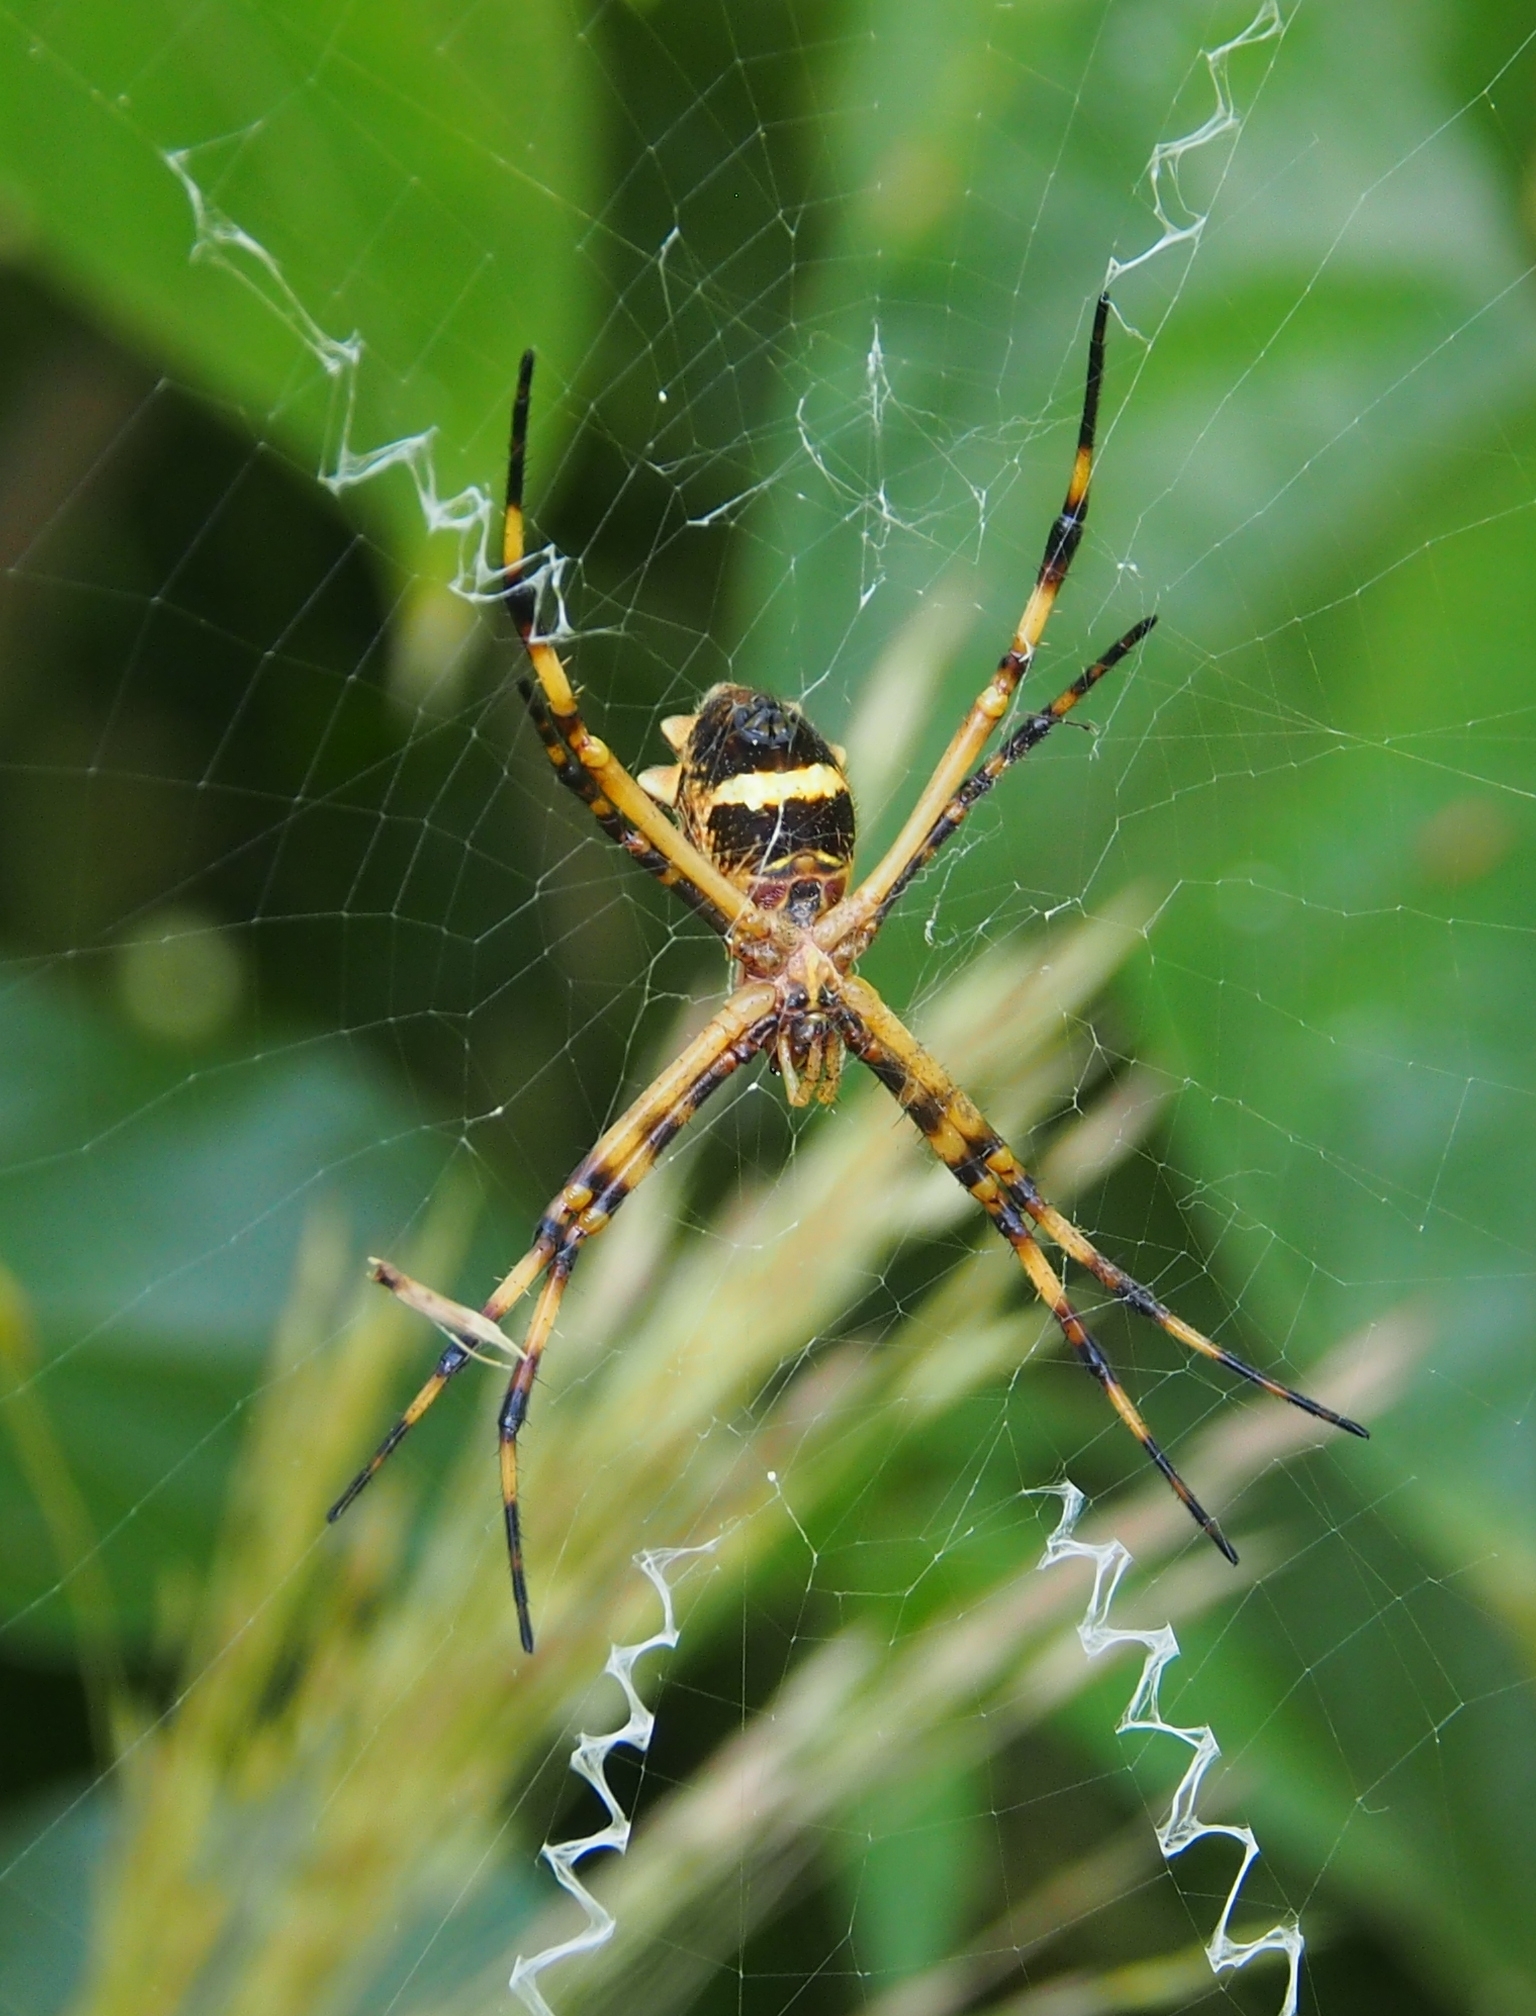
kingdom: Animalia
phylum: Arthropoda
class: Arachnida
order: Araneae
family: Araneidae
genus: Argiope
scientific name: Argiope argentata
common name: Orb weavers
